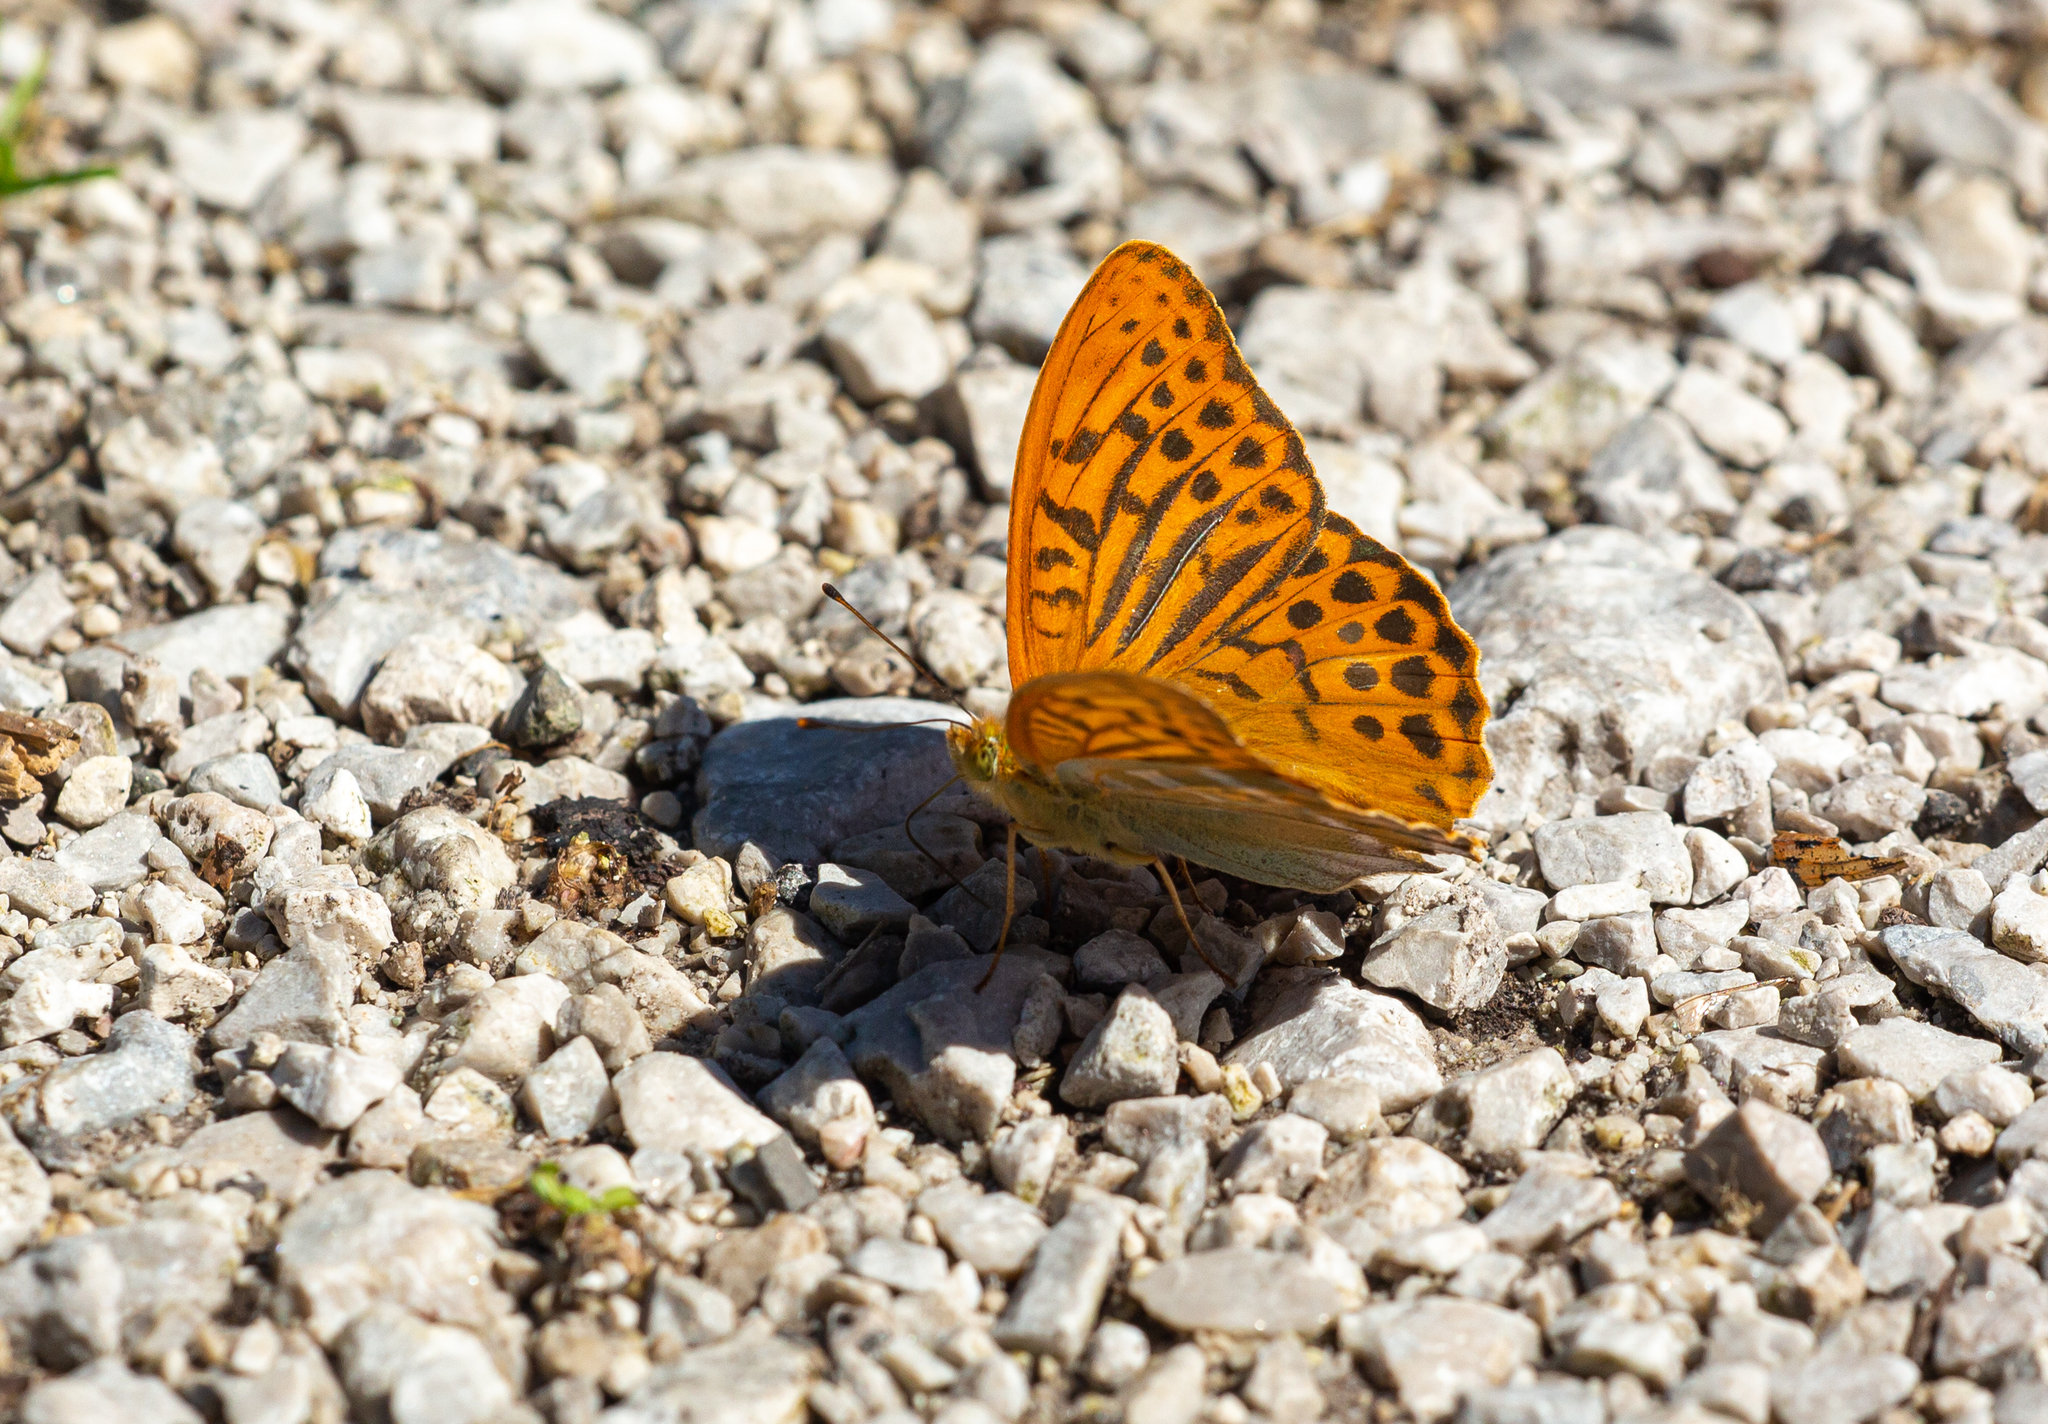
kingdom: Animalia
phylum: Arthropoda
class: Insecta
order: Lepidoptera
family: Nymphalidae
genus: Argynnis
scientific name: Argynnis paphia
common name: Silver-washed fritillary
